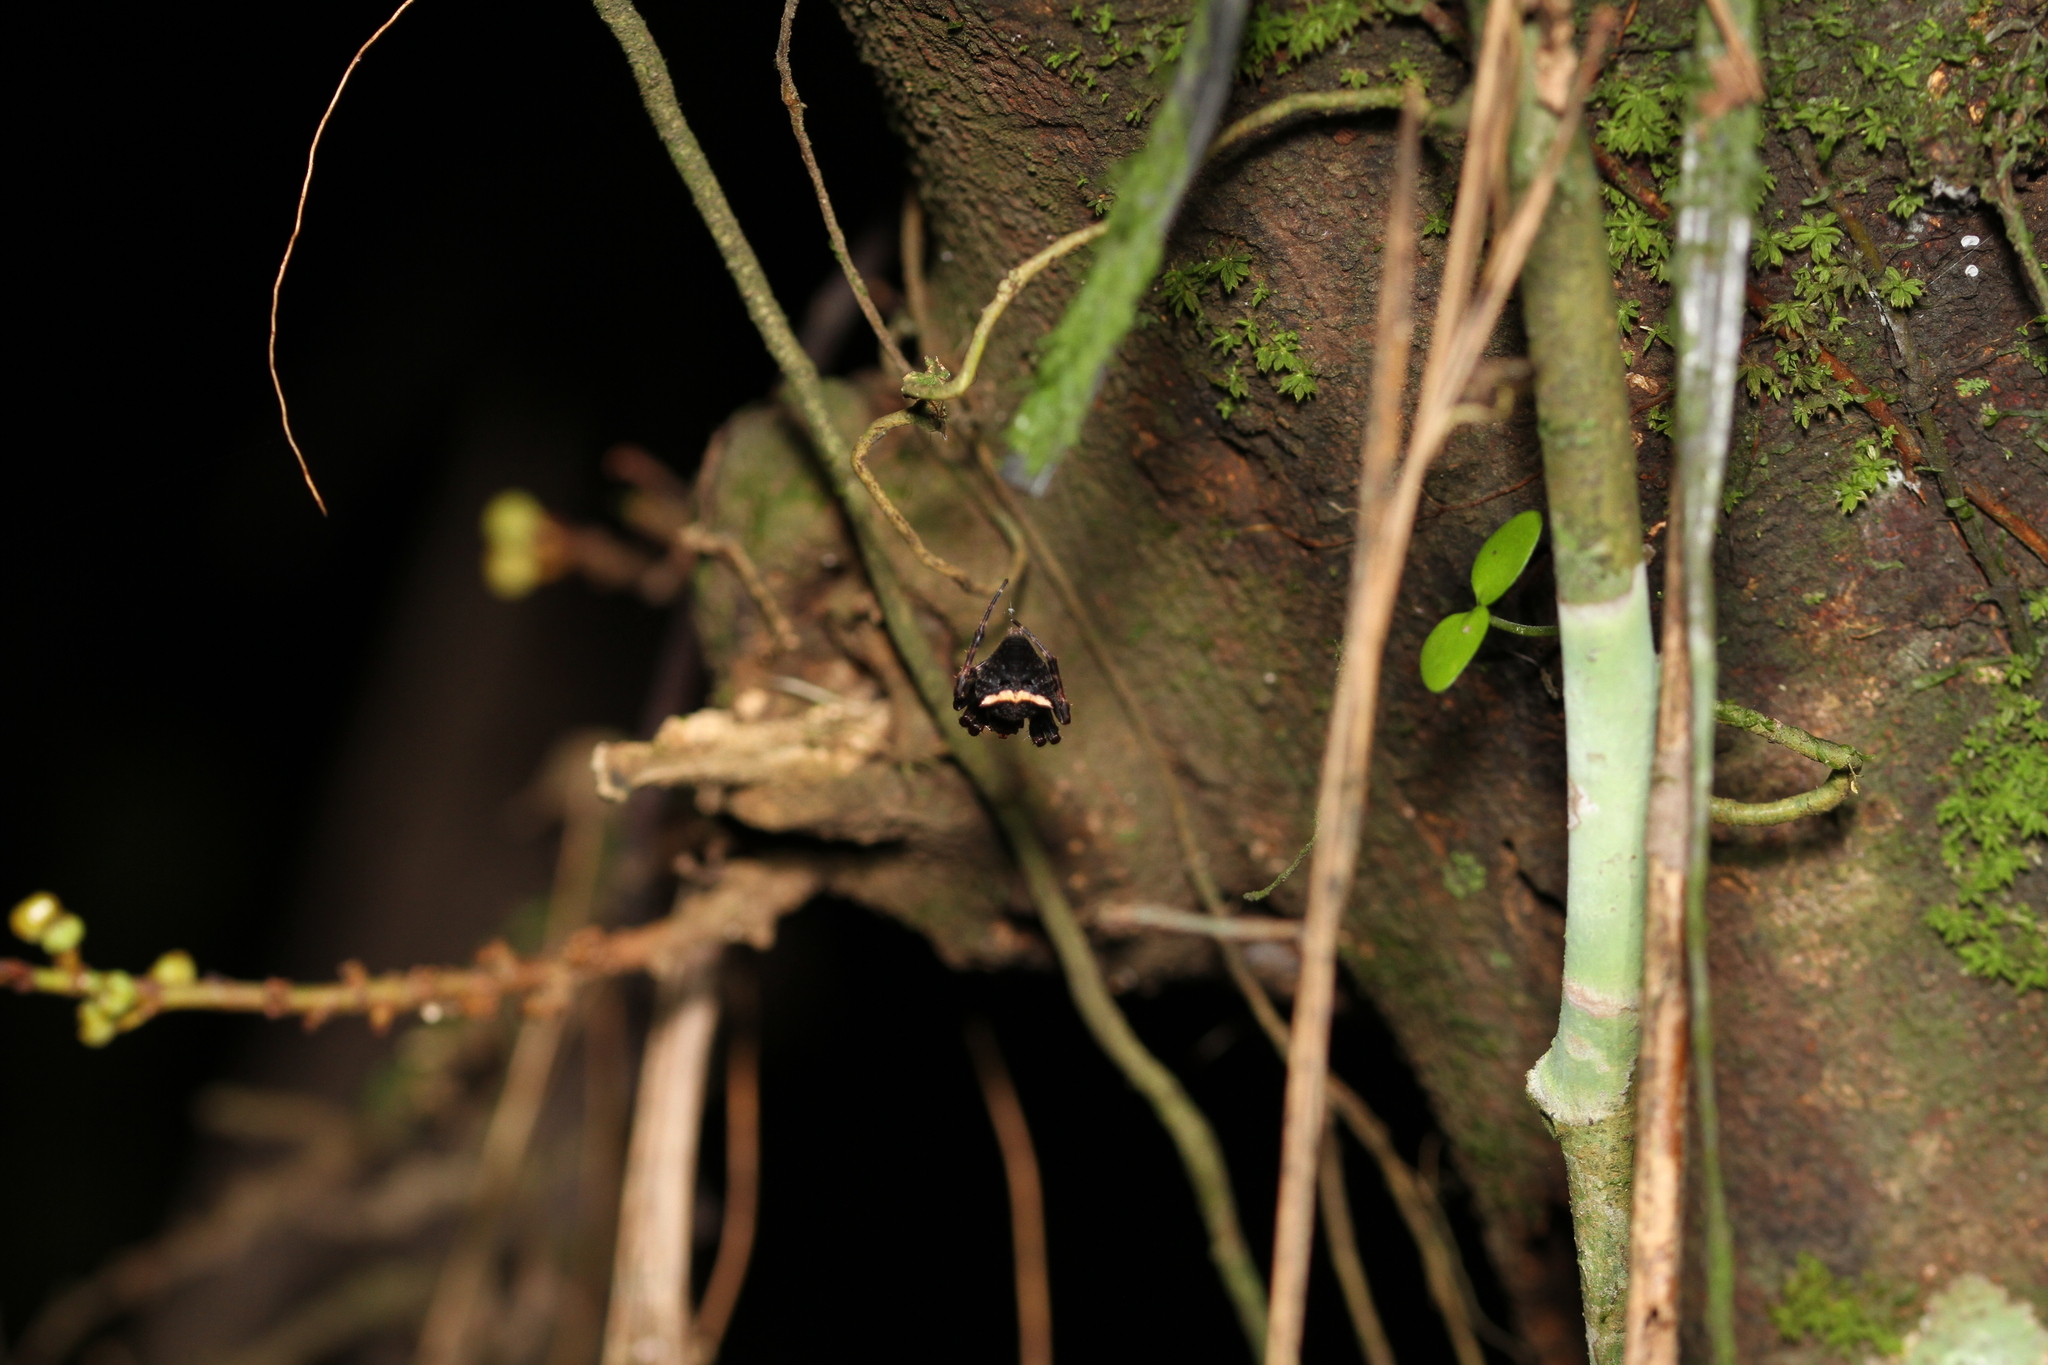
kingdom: Animalia
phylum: Arthropoda
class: Arachnida
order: Araneae
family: Araneidae
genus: Parawixia
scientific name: Parawixia dehaani
